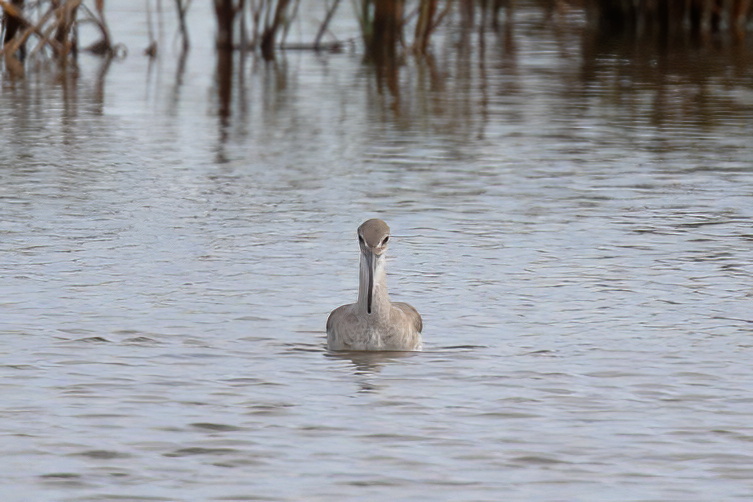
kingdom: Animalia
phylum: Chordata
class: Aves
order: Charadriiformes
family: Scolopacidae
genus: Tringa
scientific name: Tringa semipalmata
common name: Willet
